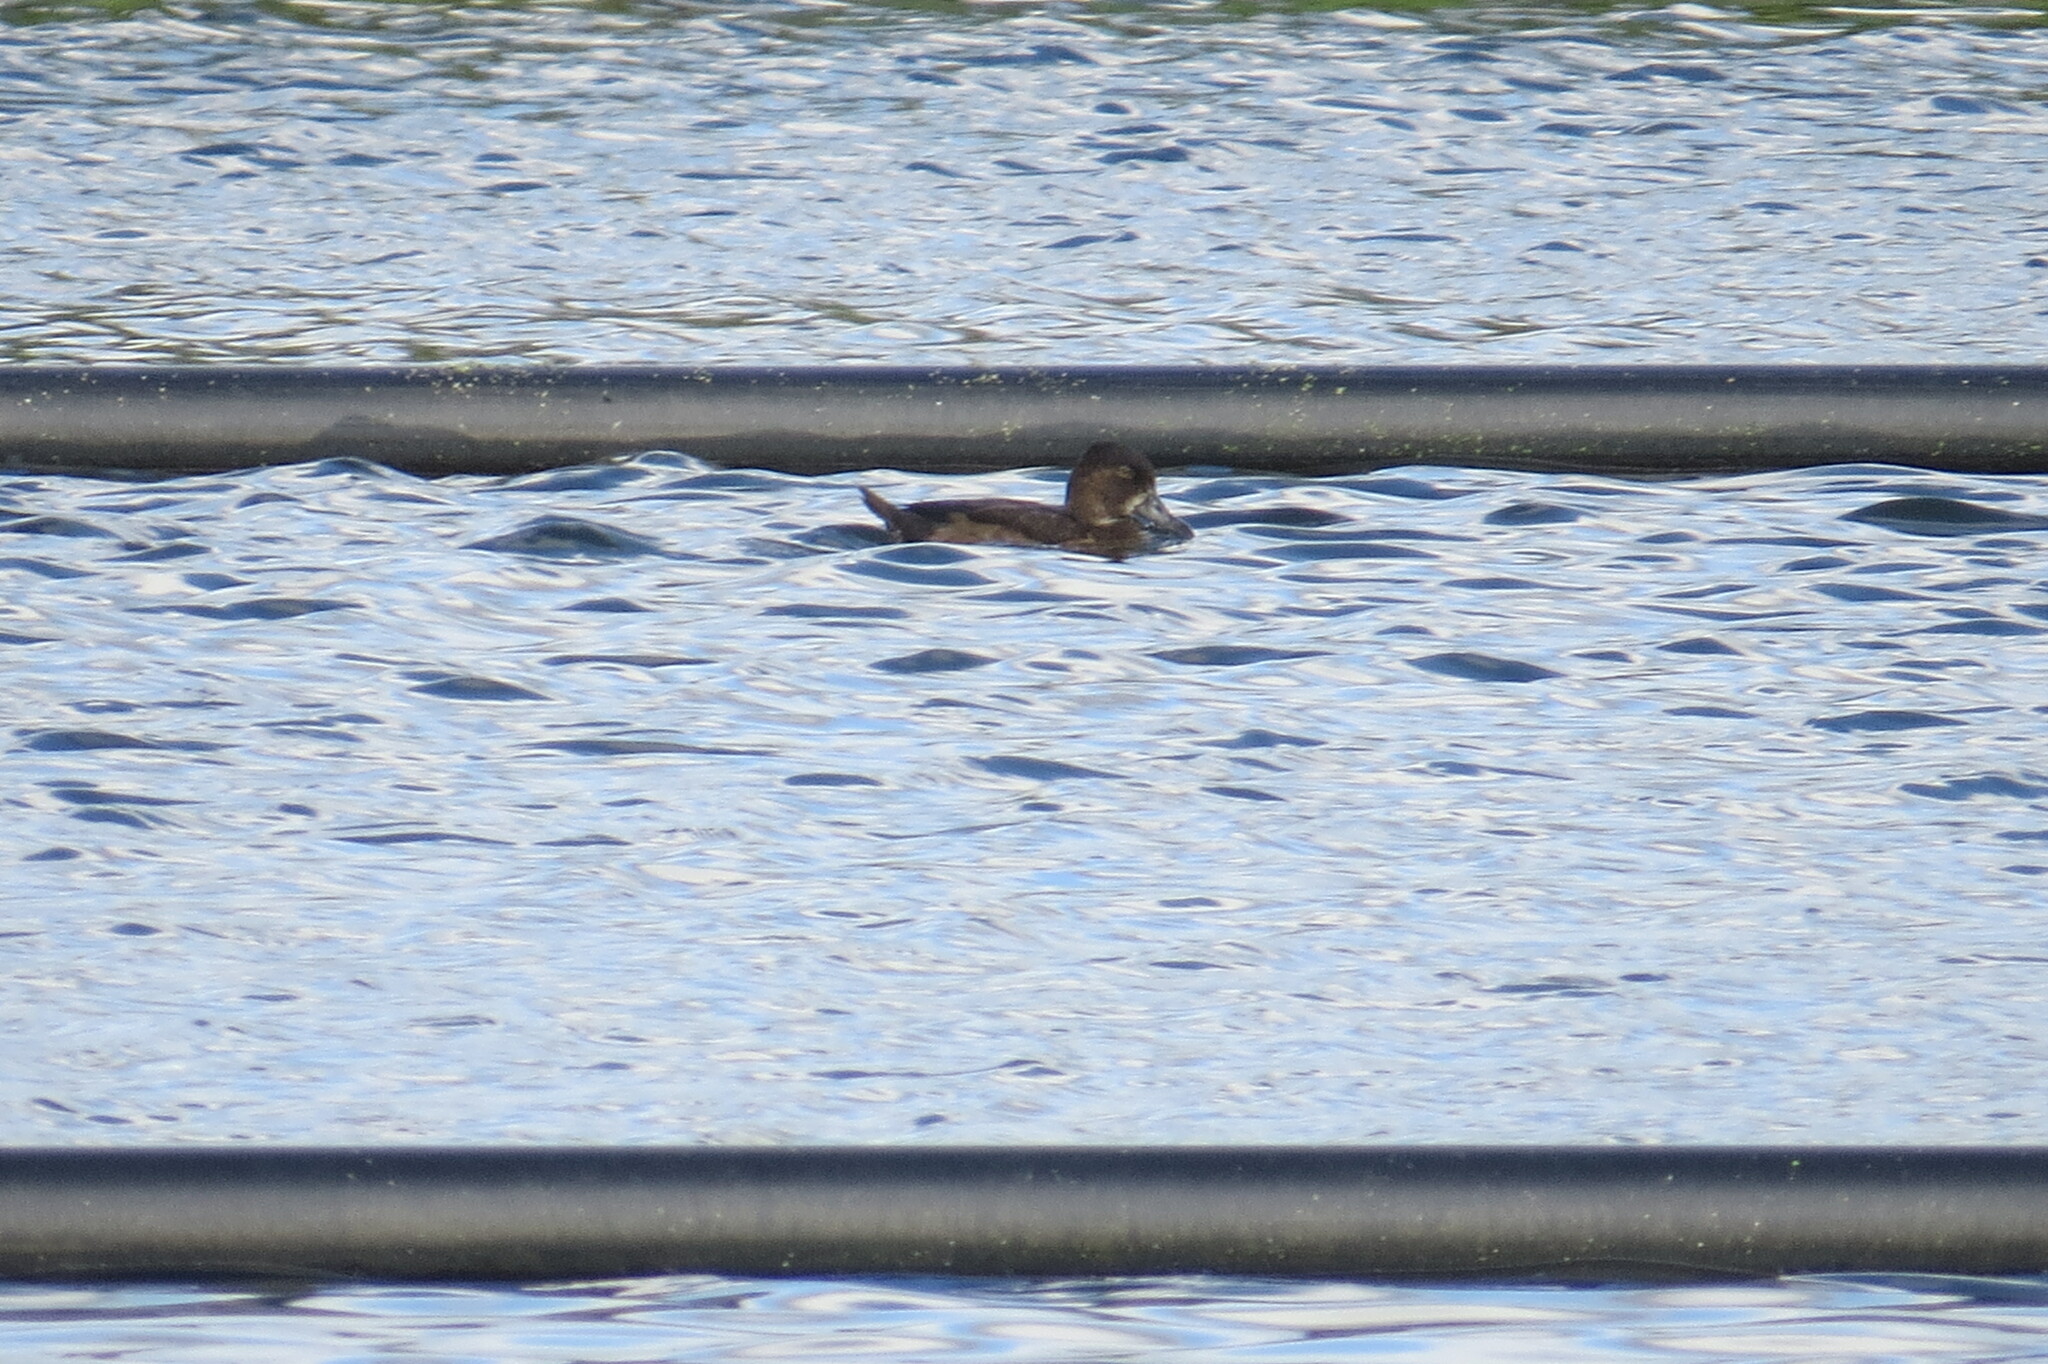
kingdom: Animalia
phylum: Chordata
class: Aves
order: Anseriformes
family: Anatidae
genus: Aythya
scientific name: Aythya collaris
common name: Ring-necked duck
